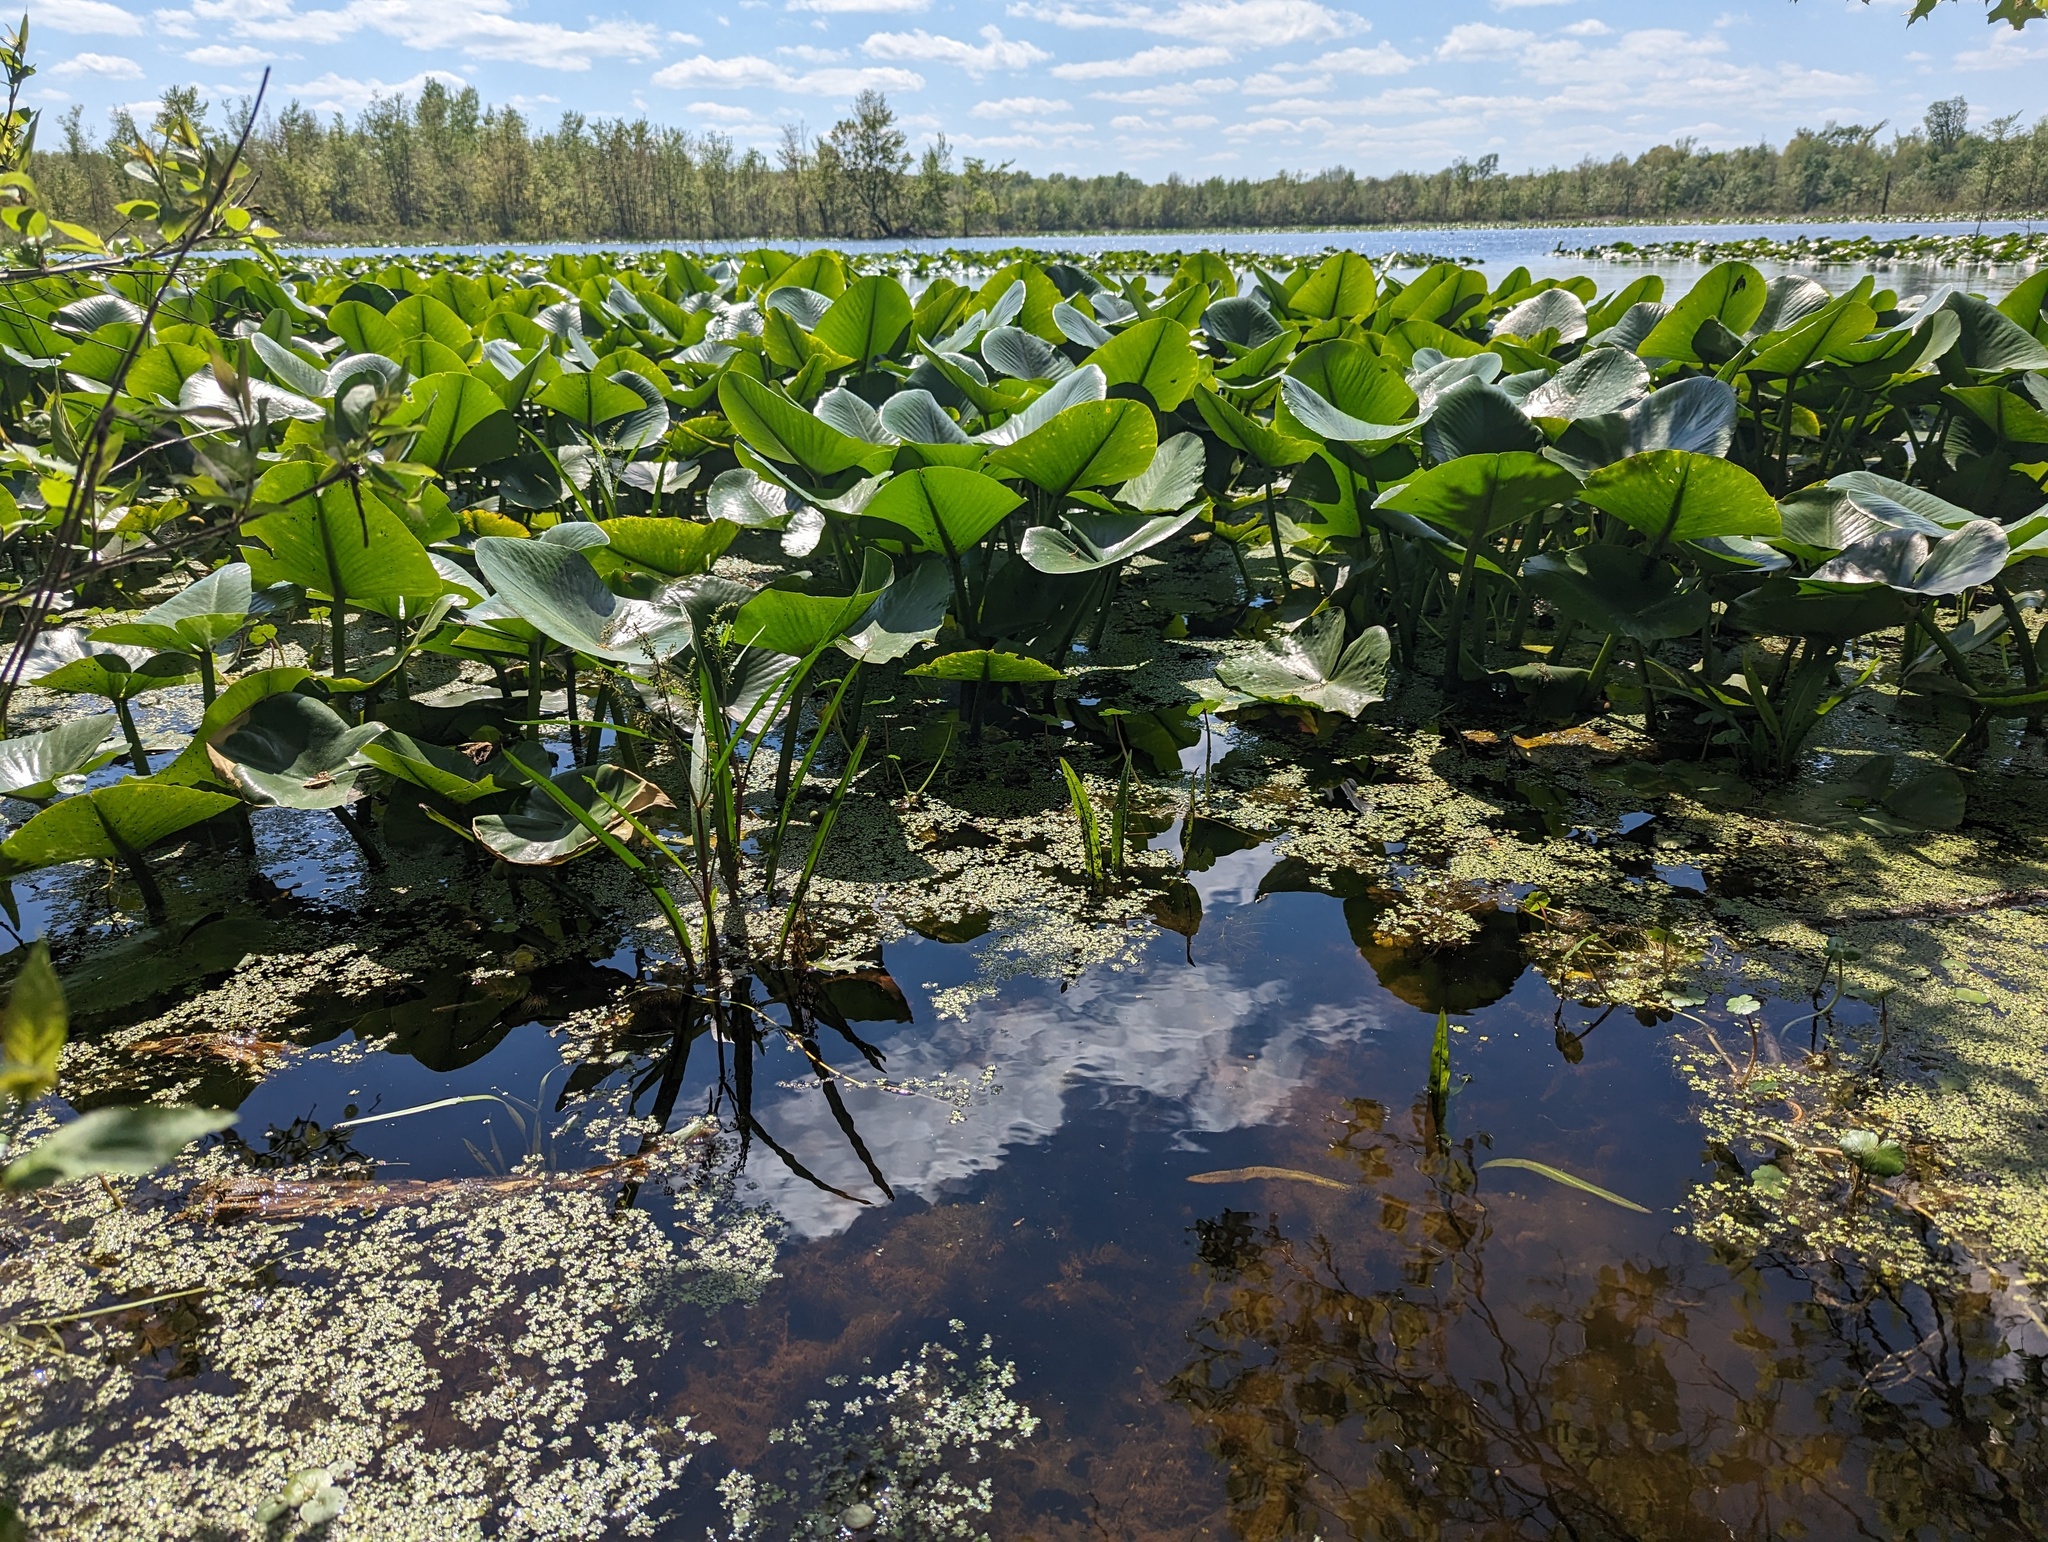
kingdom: Plantae
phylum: Tracheophyta
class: Magnoliopsida
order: Nymphaeales
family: Nymphaeaceae
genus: Nuphar
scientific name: Nuphar advena
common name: Spatter-dock
